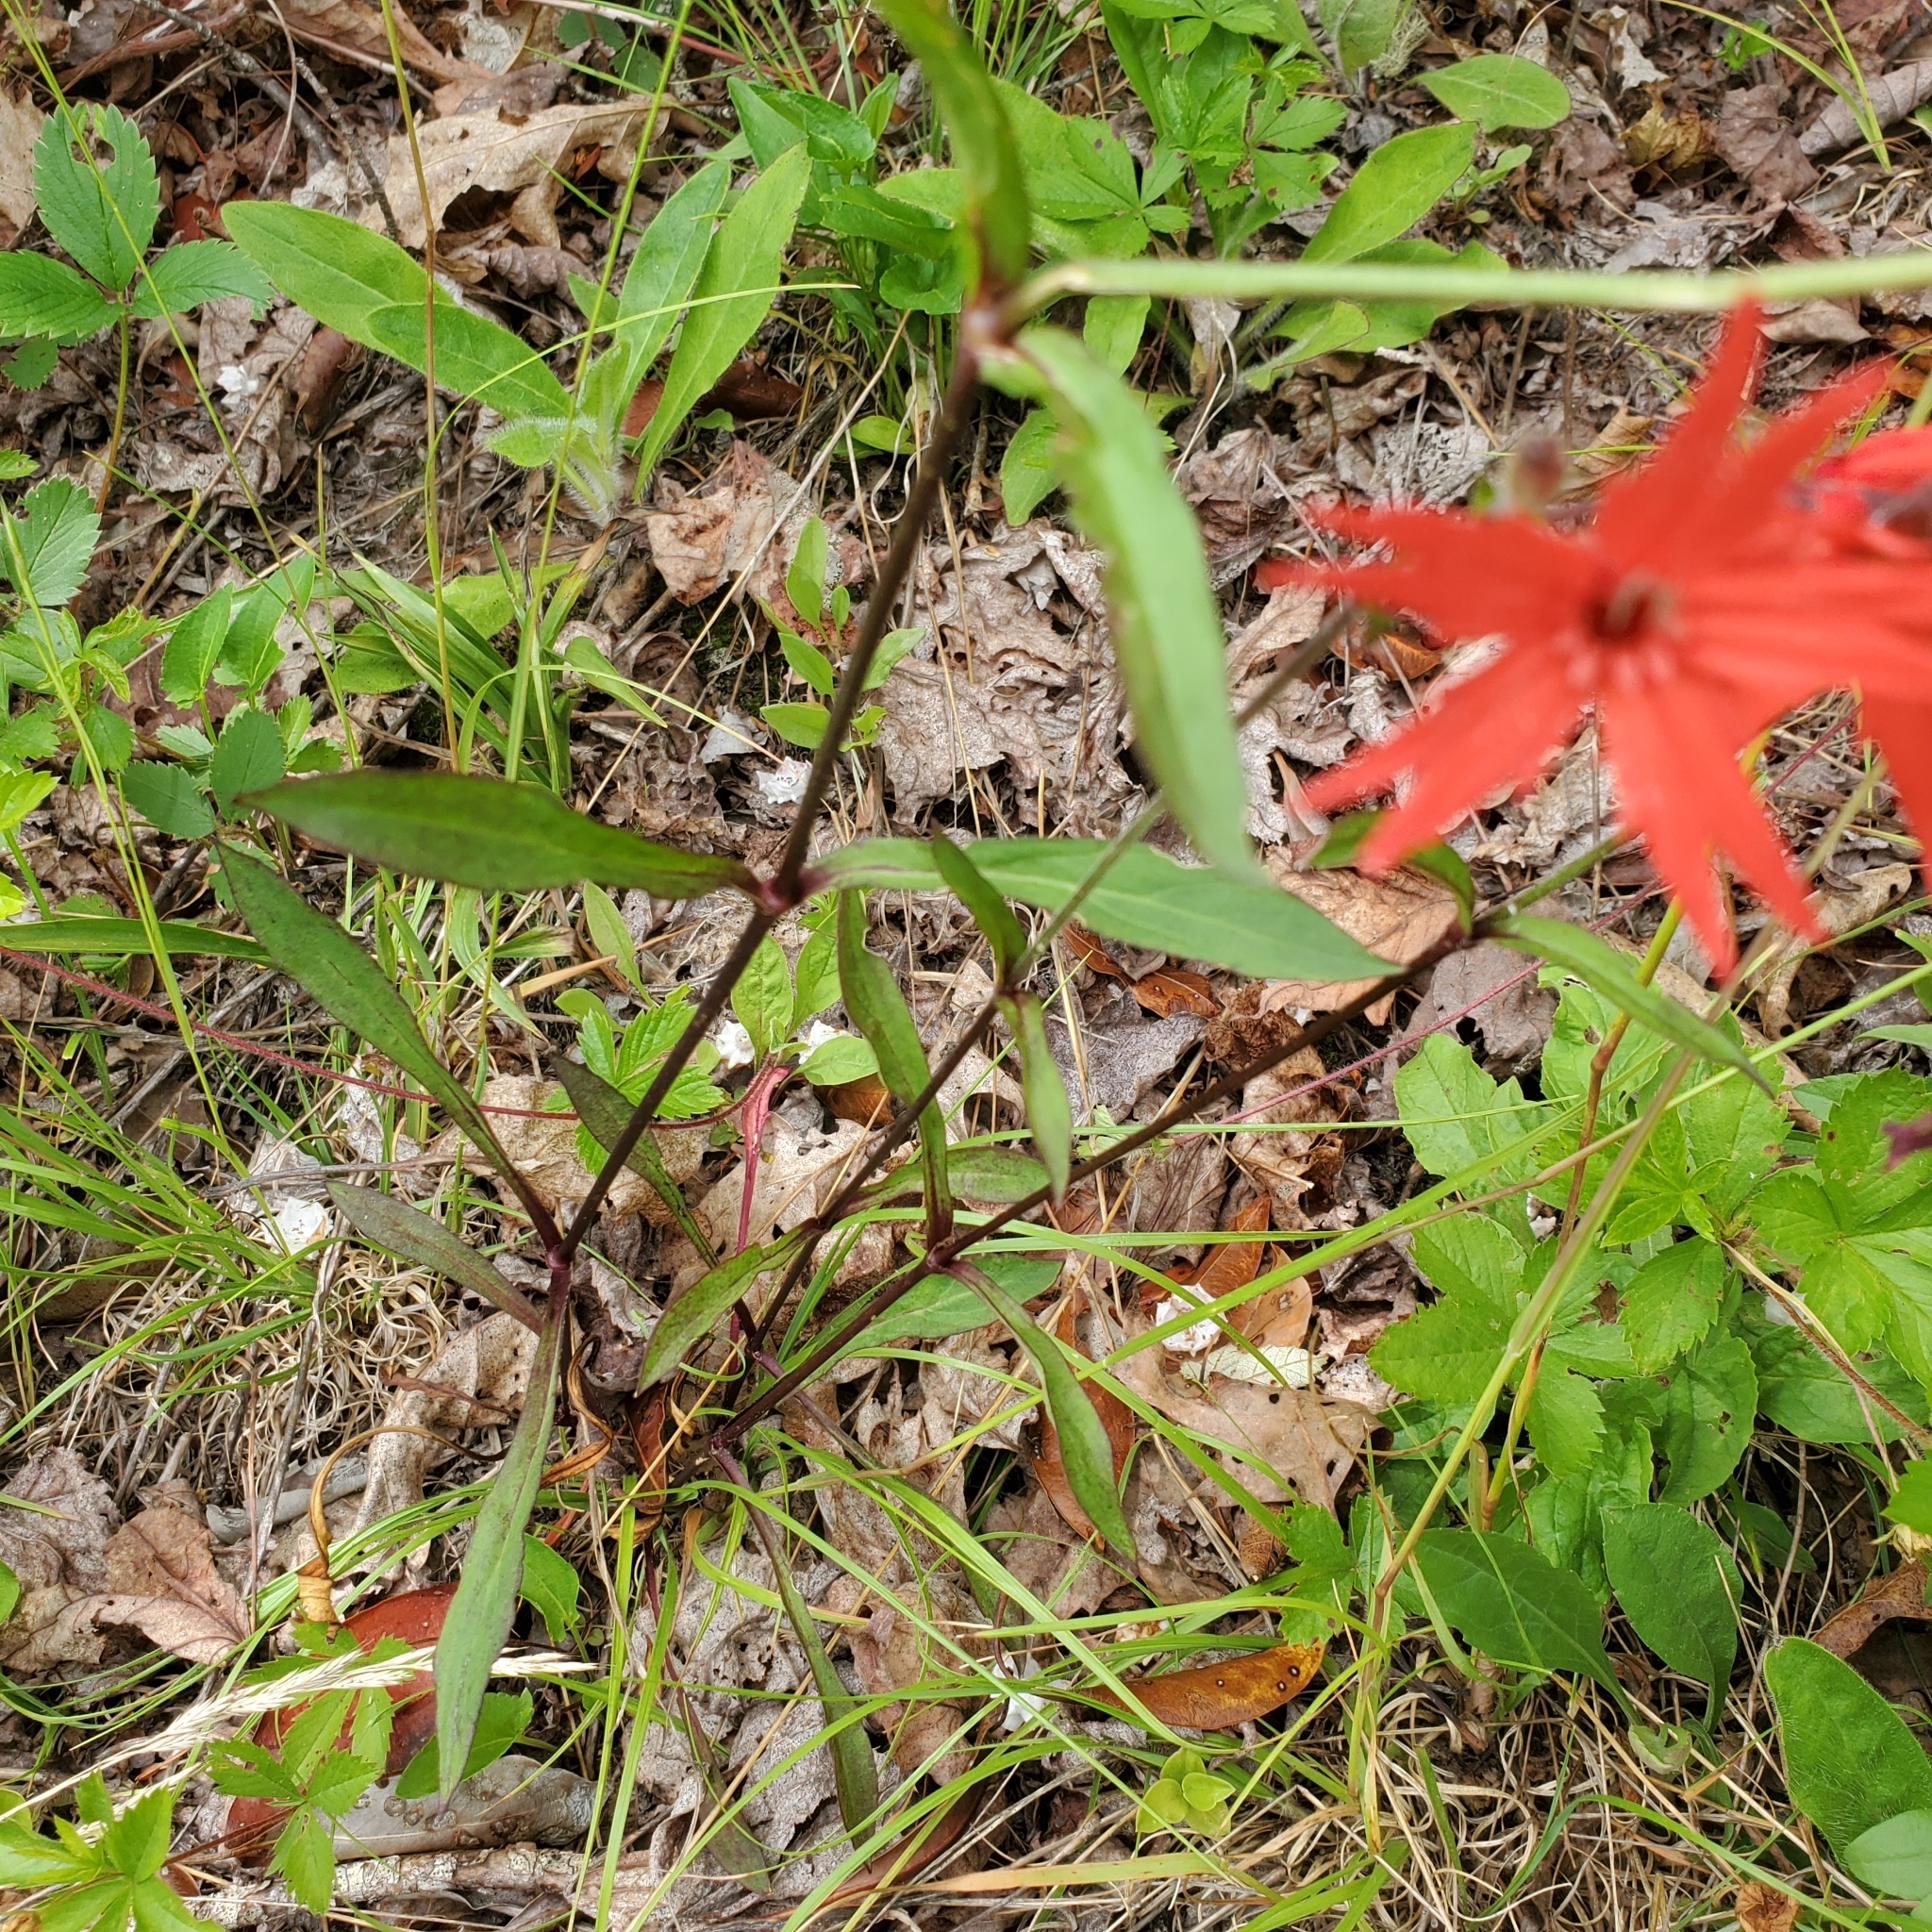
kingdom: Plantae
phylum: Tracheophyta
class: Magnoliopsida
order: Caryophyllales
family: Caryophyllaceae
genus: Silene
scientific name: Silene virginica
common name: Fire-pink
